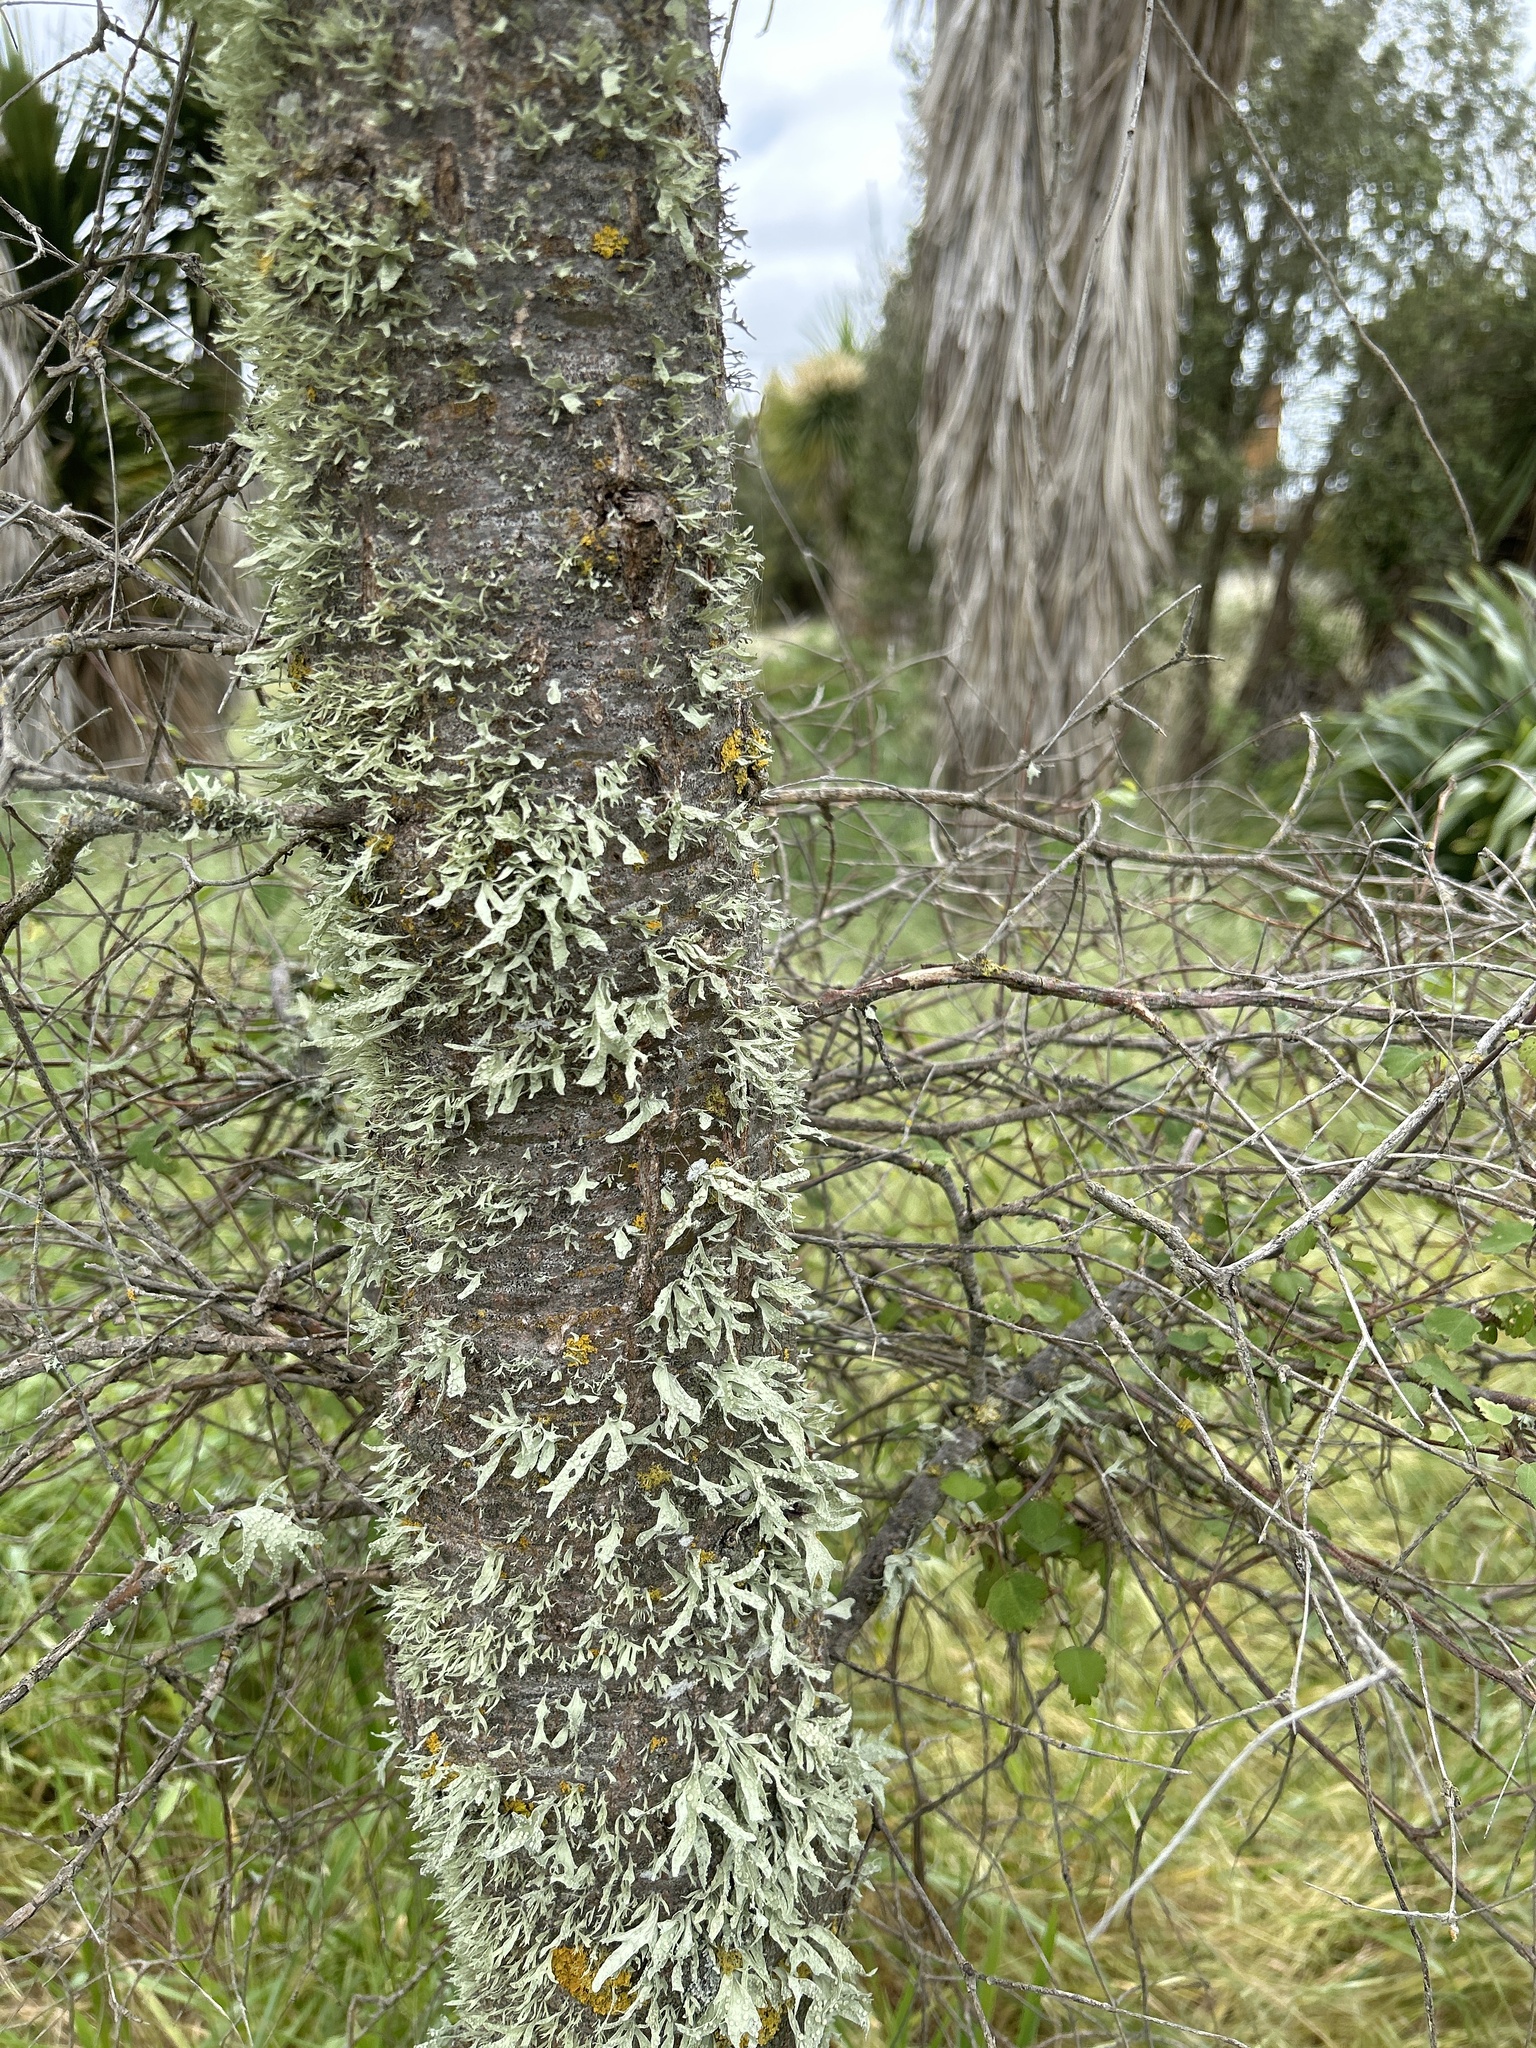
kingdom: Plantae
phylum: Tracheophyta
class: Magnoliopsida
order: Malvales
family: Malvaceae
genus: Plagianthus
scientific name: Plagianthus regius
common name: Manatu
